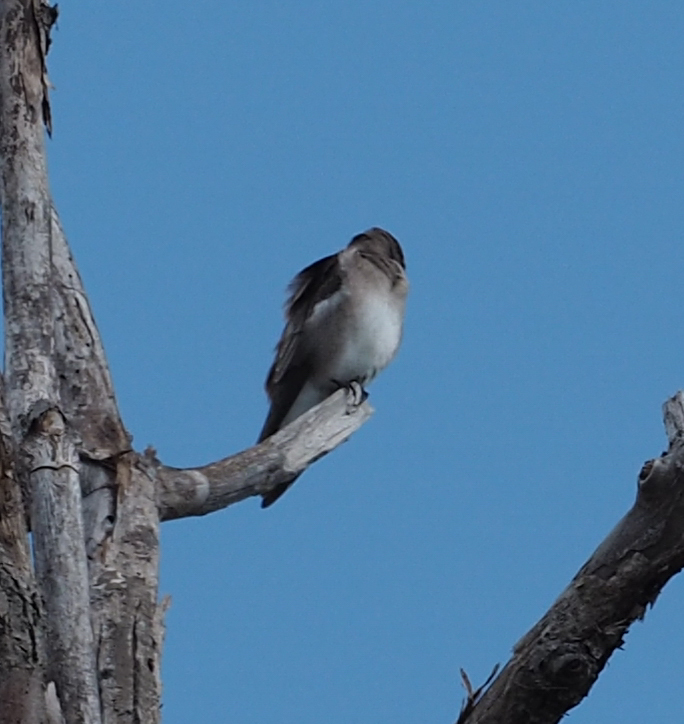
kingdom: Animalia
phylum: Chordata
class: Aves
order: Passeriformes
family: Hirundinidae
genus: Stelgidopteryx
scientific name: Stelgidopteryx serripennis
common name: Northern rough-winged swallow
